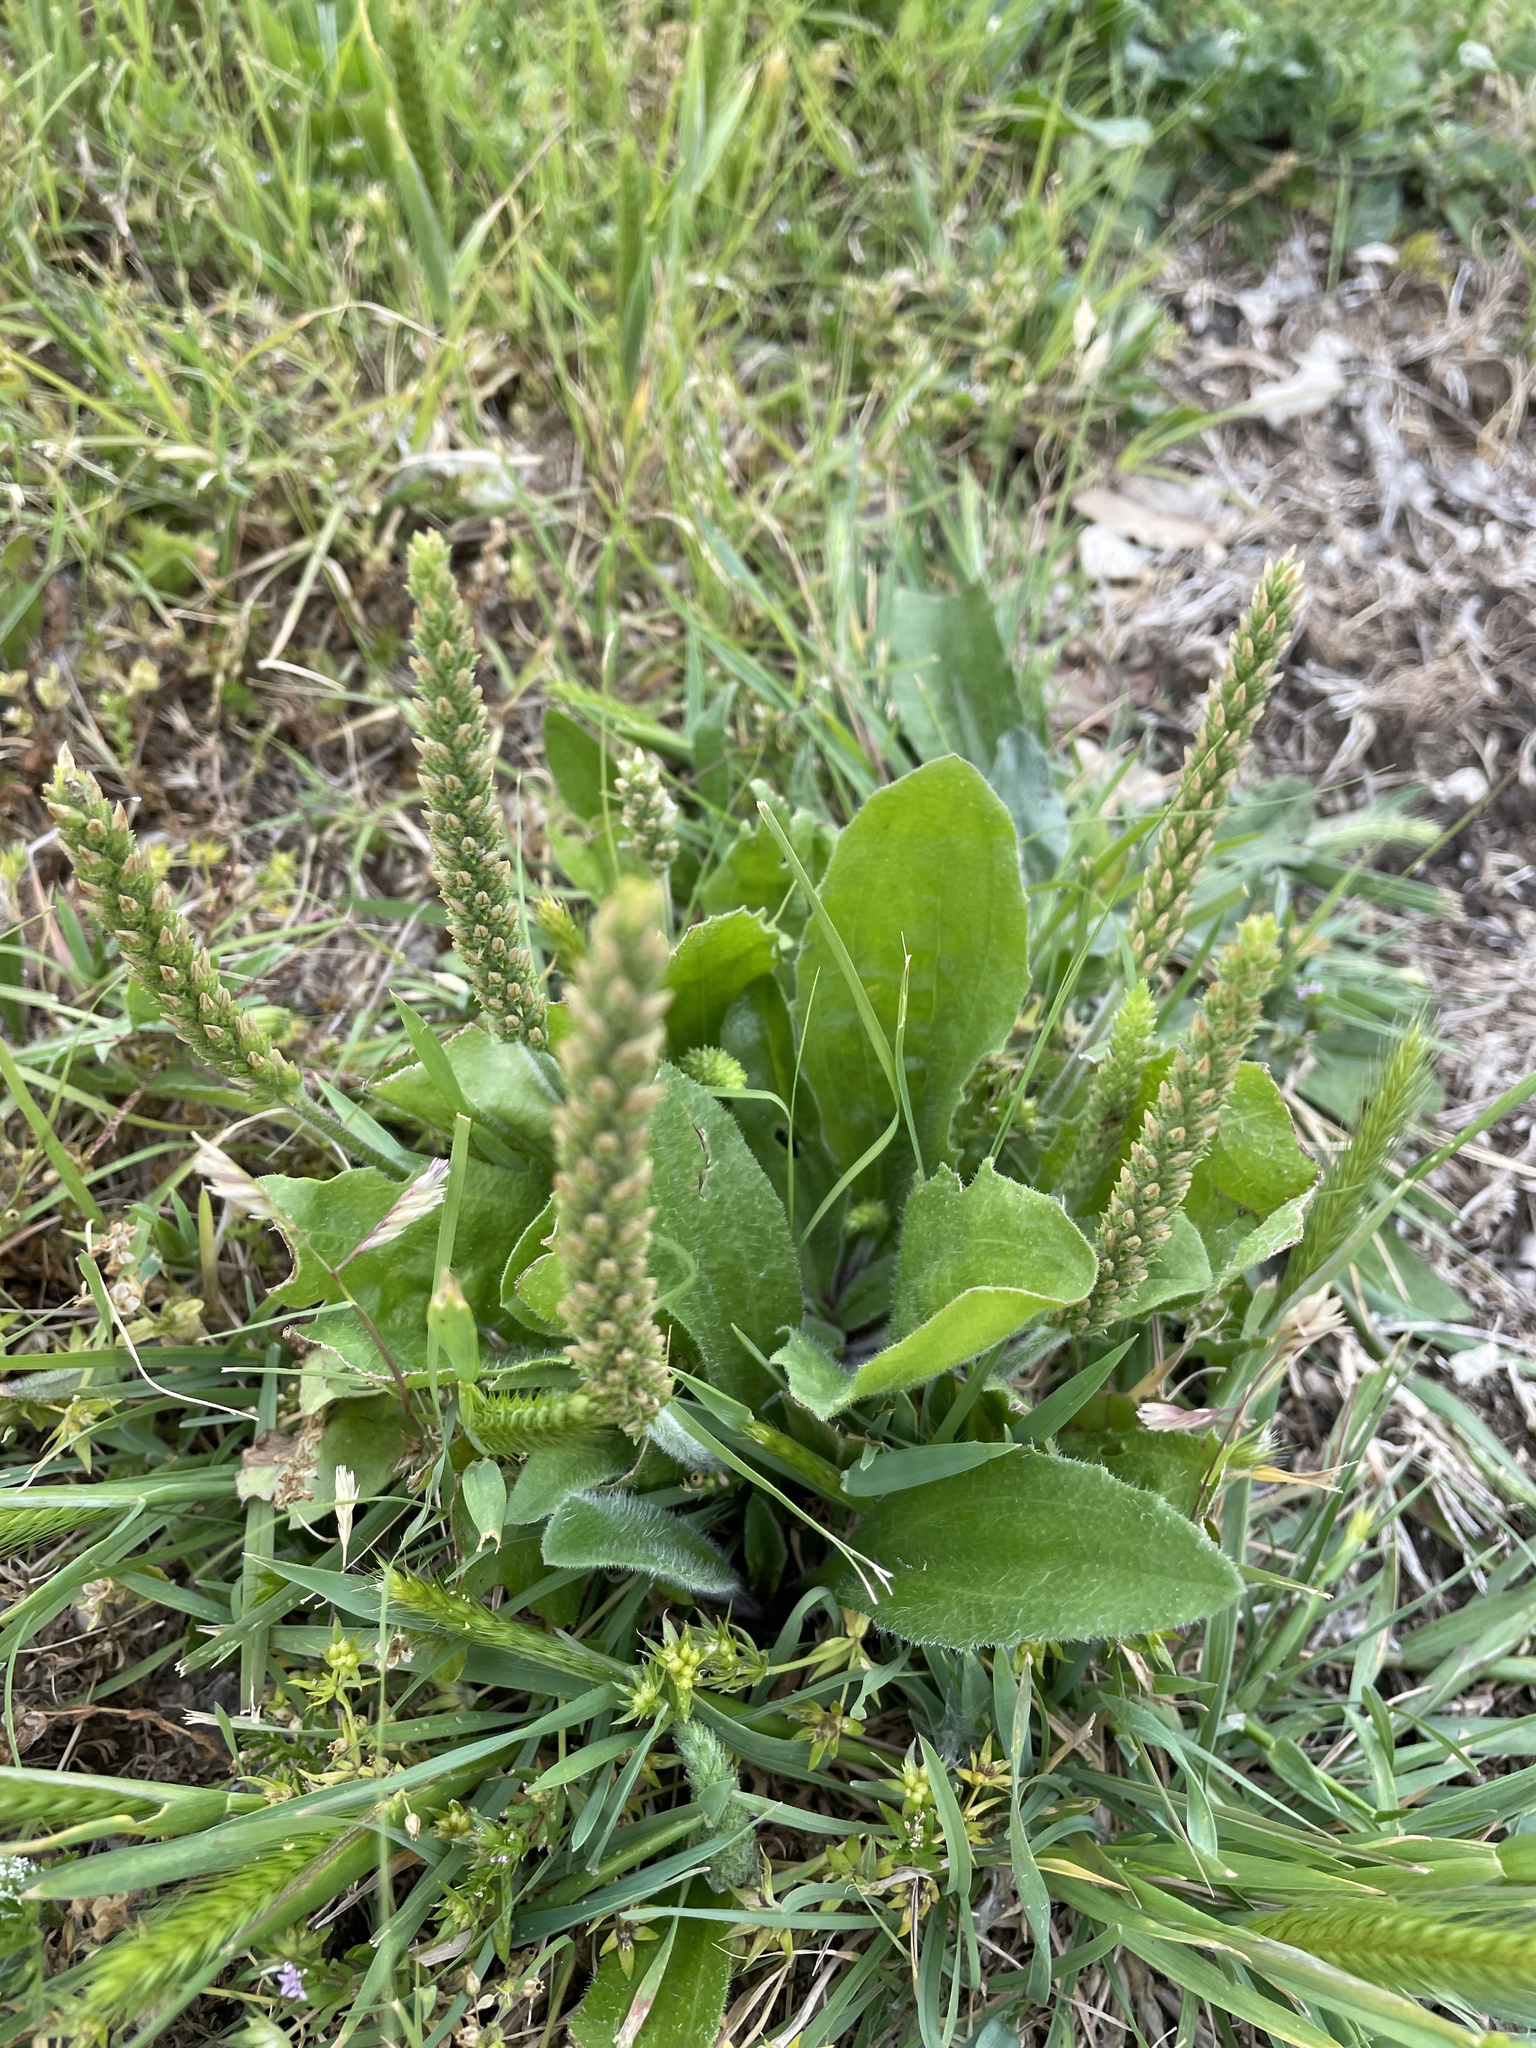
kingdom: Plantae
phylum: Tracheophyta
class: Magnoliopsida
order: Lamiales
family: Plantaginaceae
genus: Plantago
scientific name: Plantago rhodosperma
